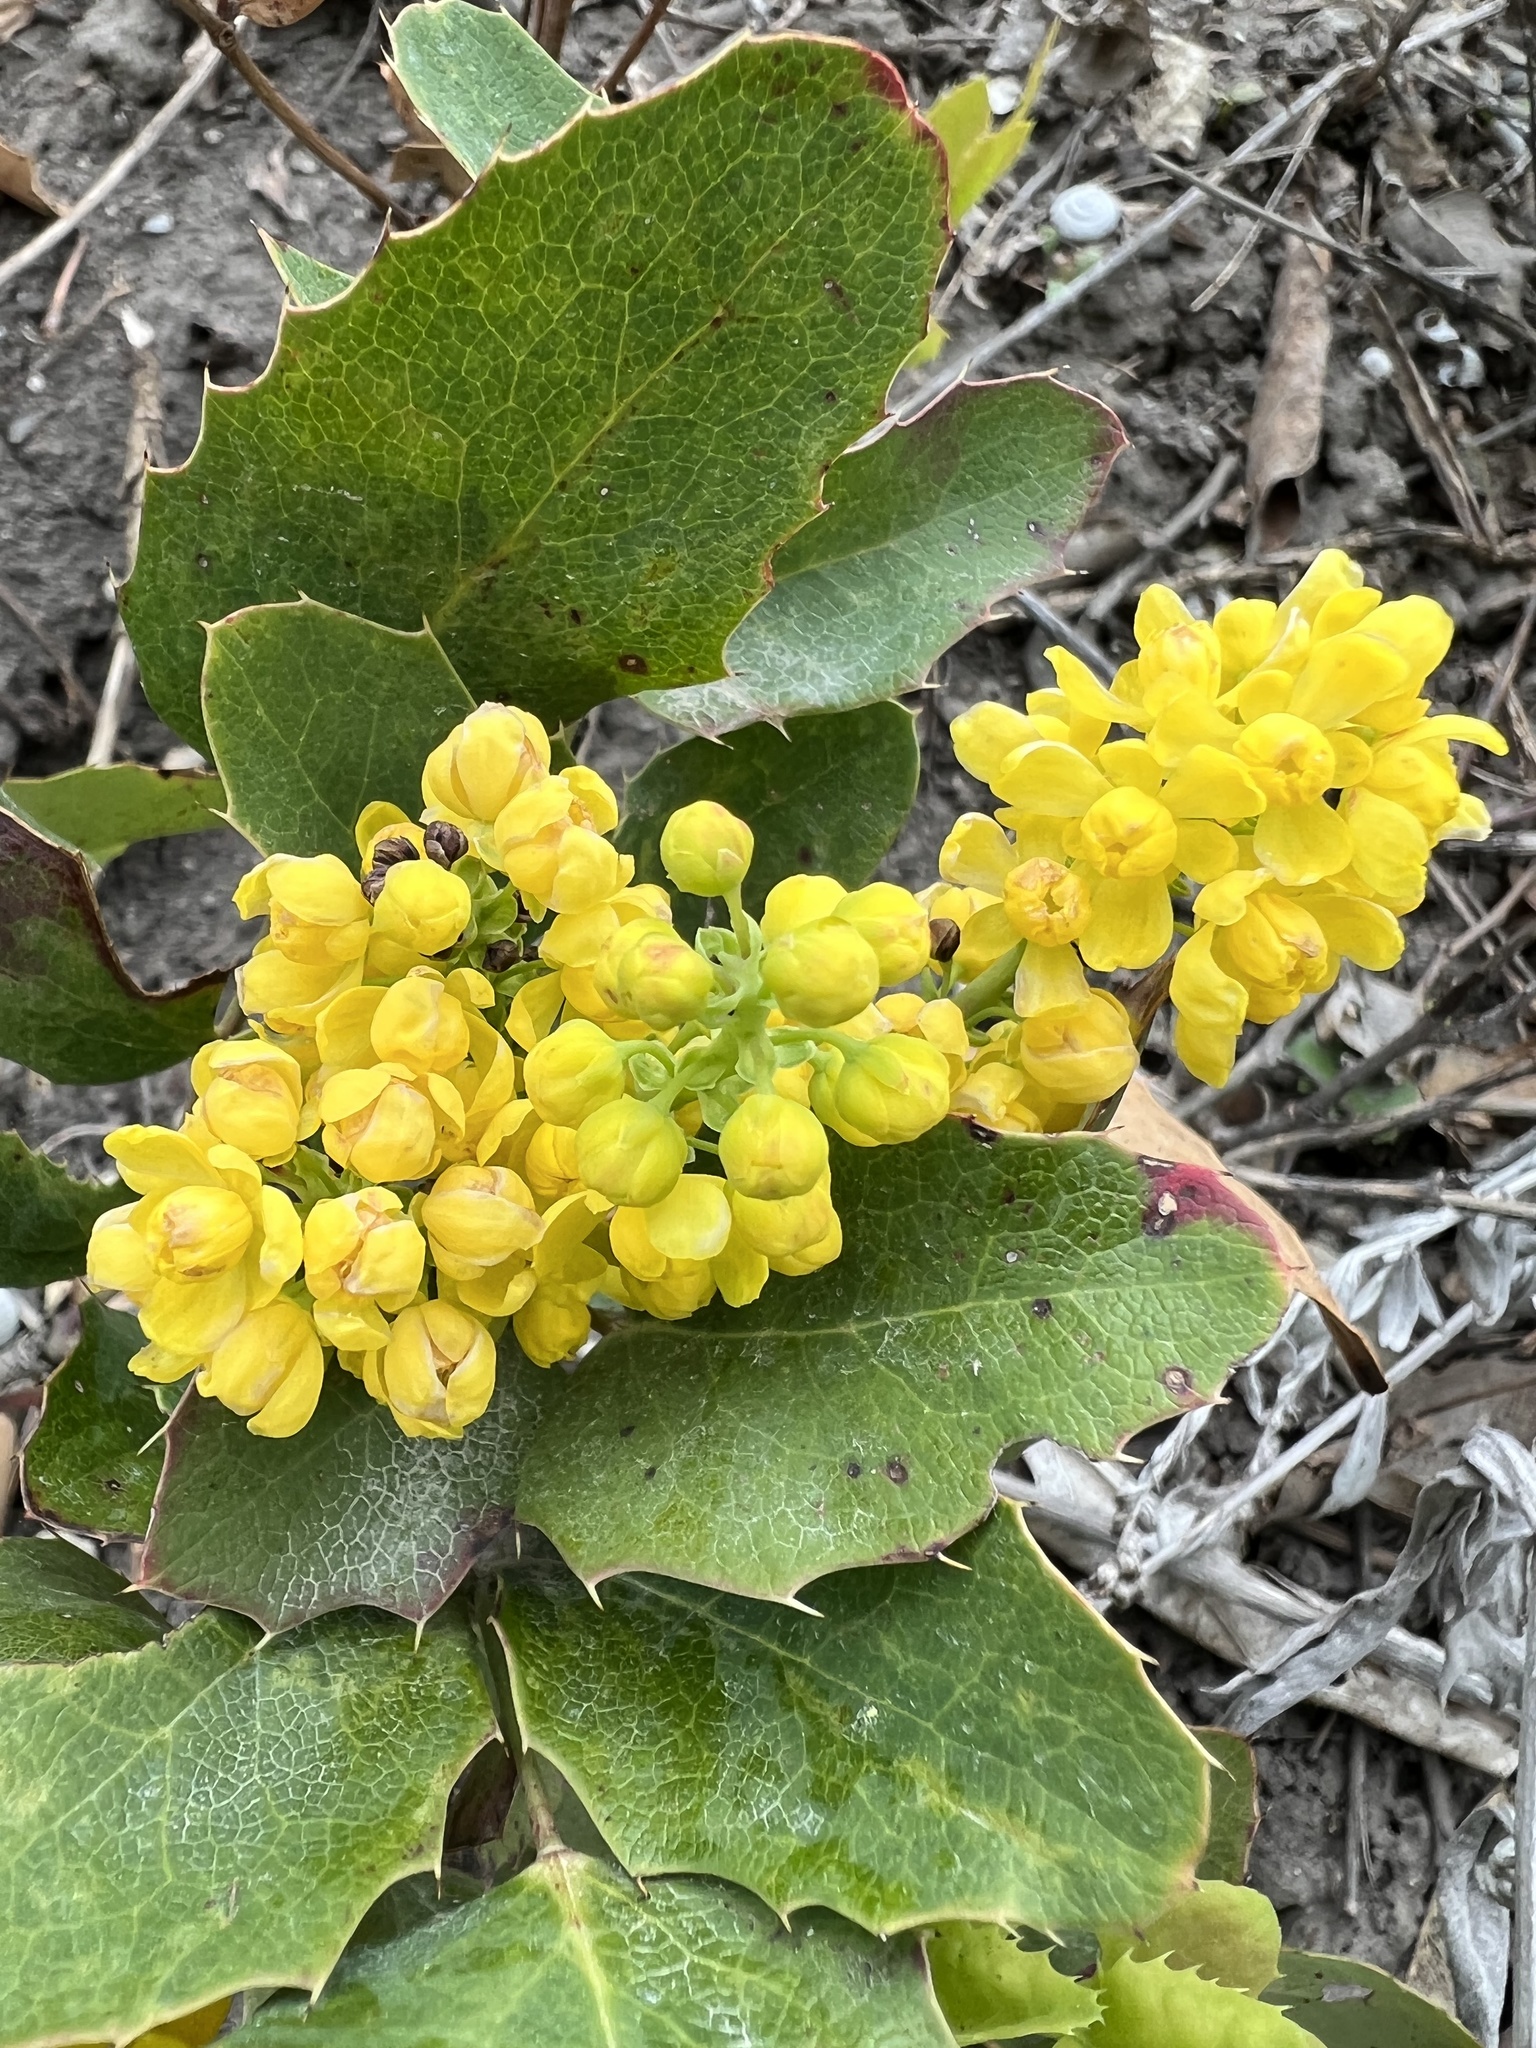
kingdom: Plantae
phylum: Tracheophyta
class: Magnoliopsida
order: Ranunculales
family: Berberidaceae
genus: Mahonia
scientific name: Mahonia repens
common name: Creeping oregon-grape
